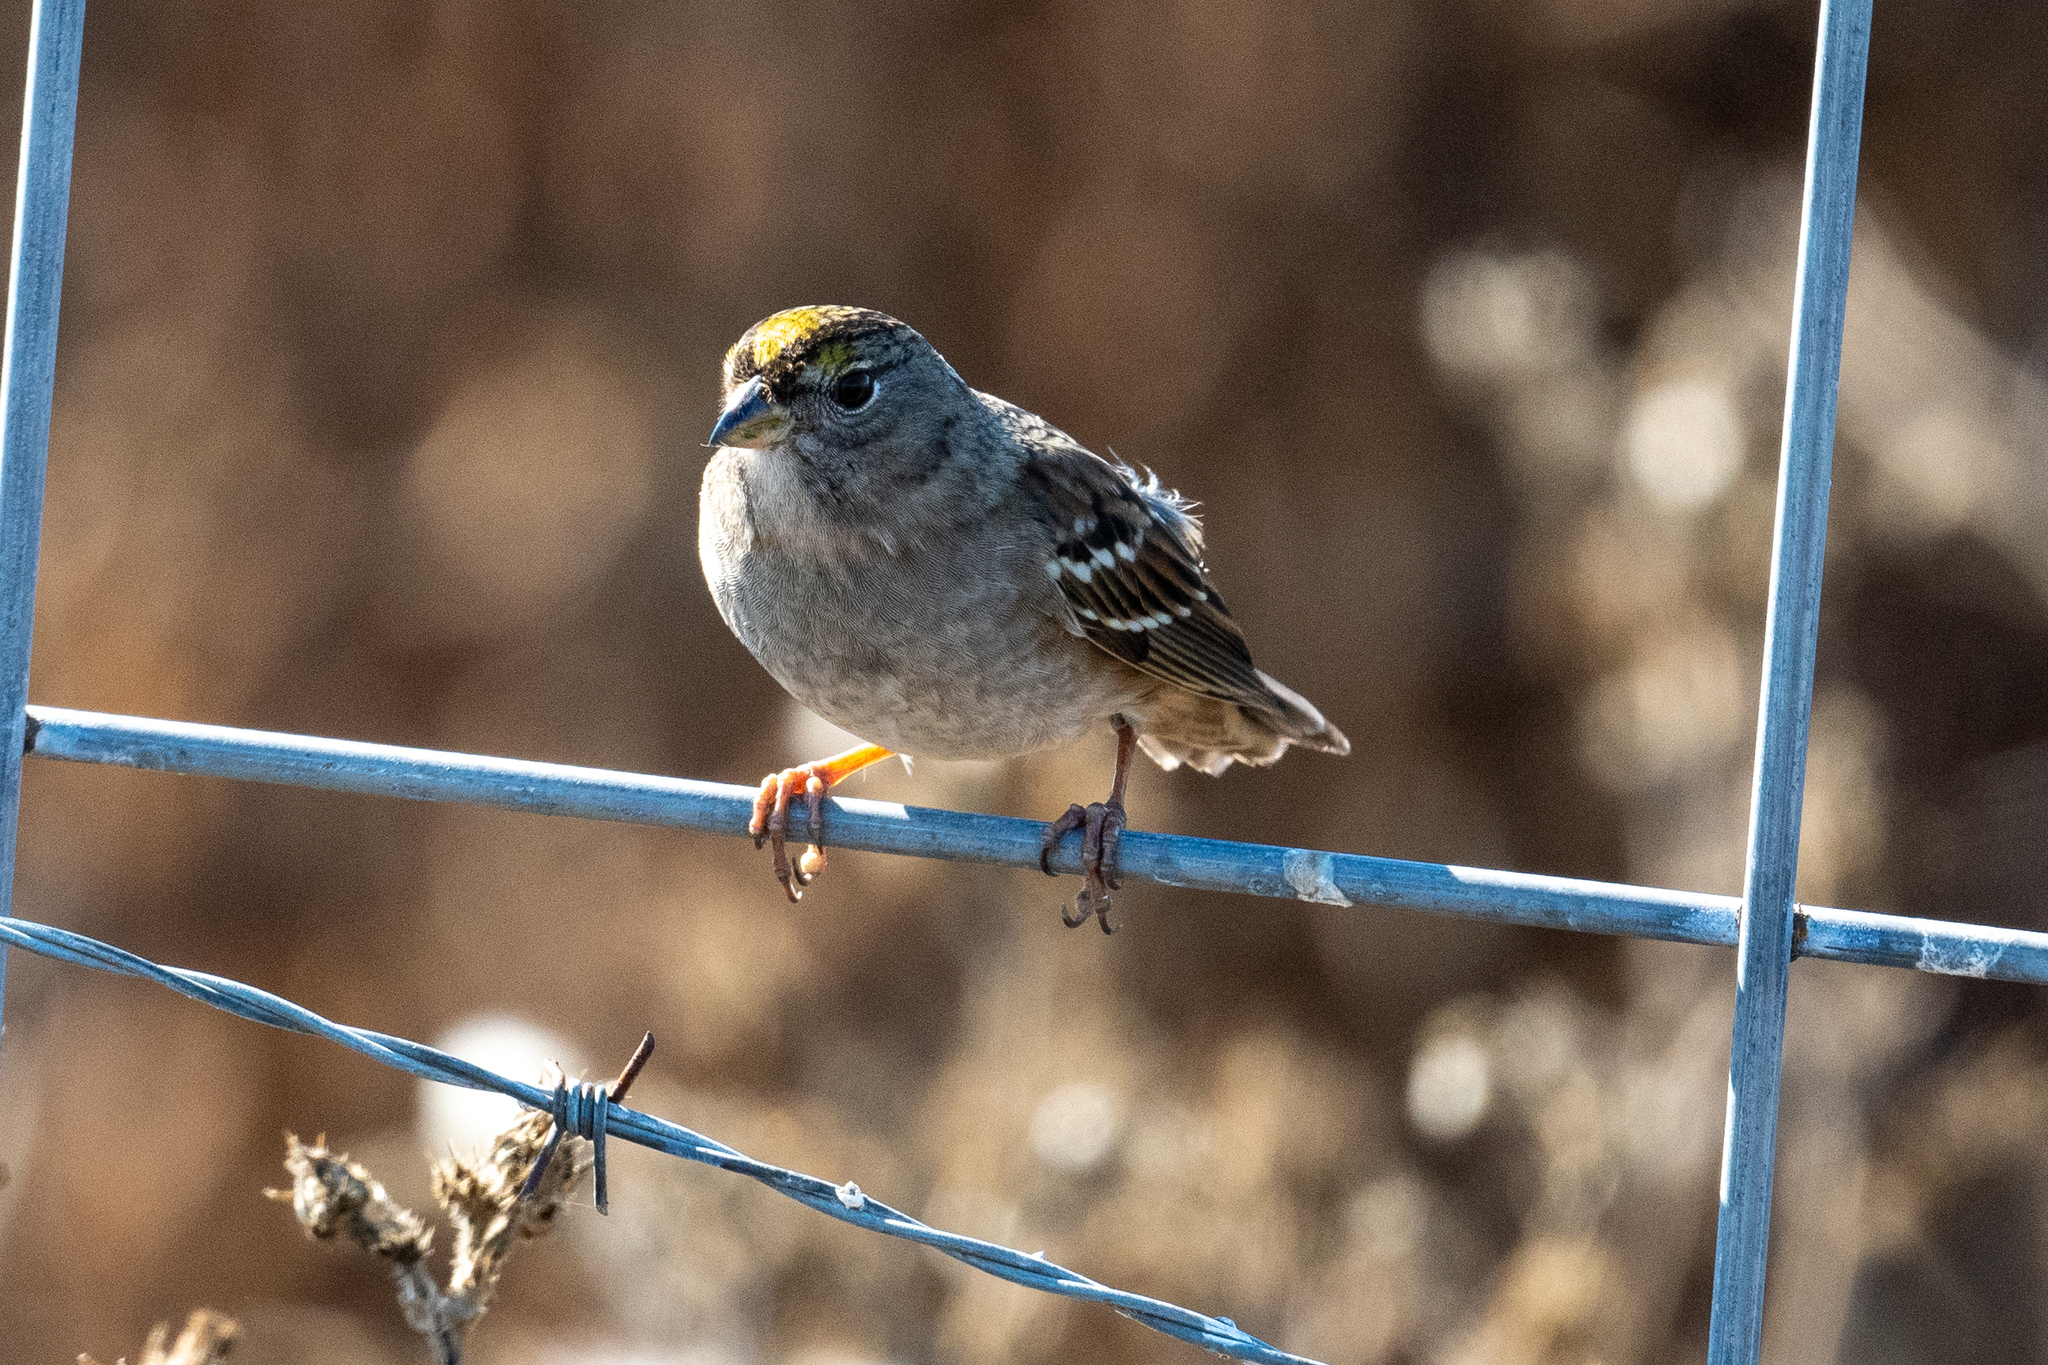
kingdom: Animalia
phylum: Chordata
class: Aves
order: Passeriformes
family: Passerellidae
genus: Zonotrichia
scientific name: Zonotrichia atricapilla
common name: Golden-crowned sparrow
